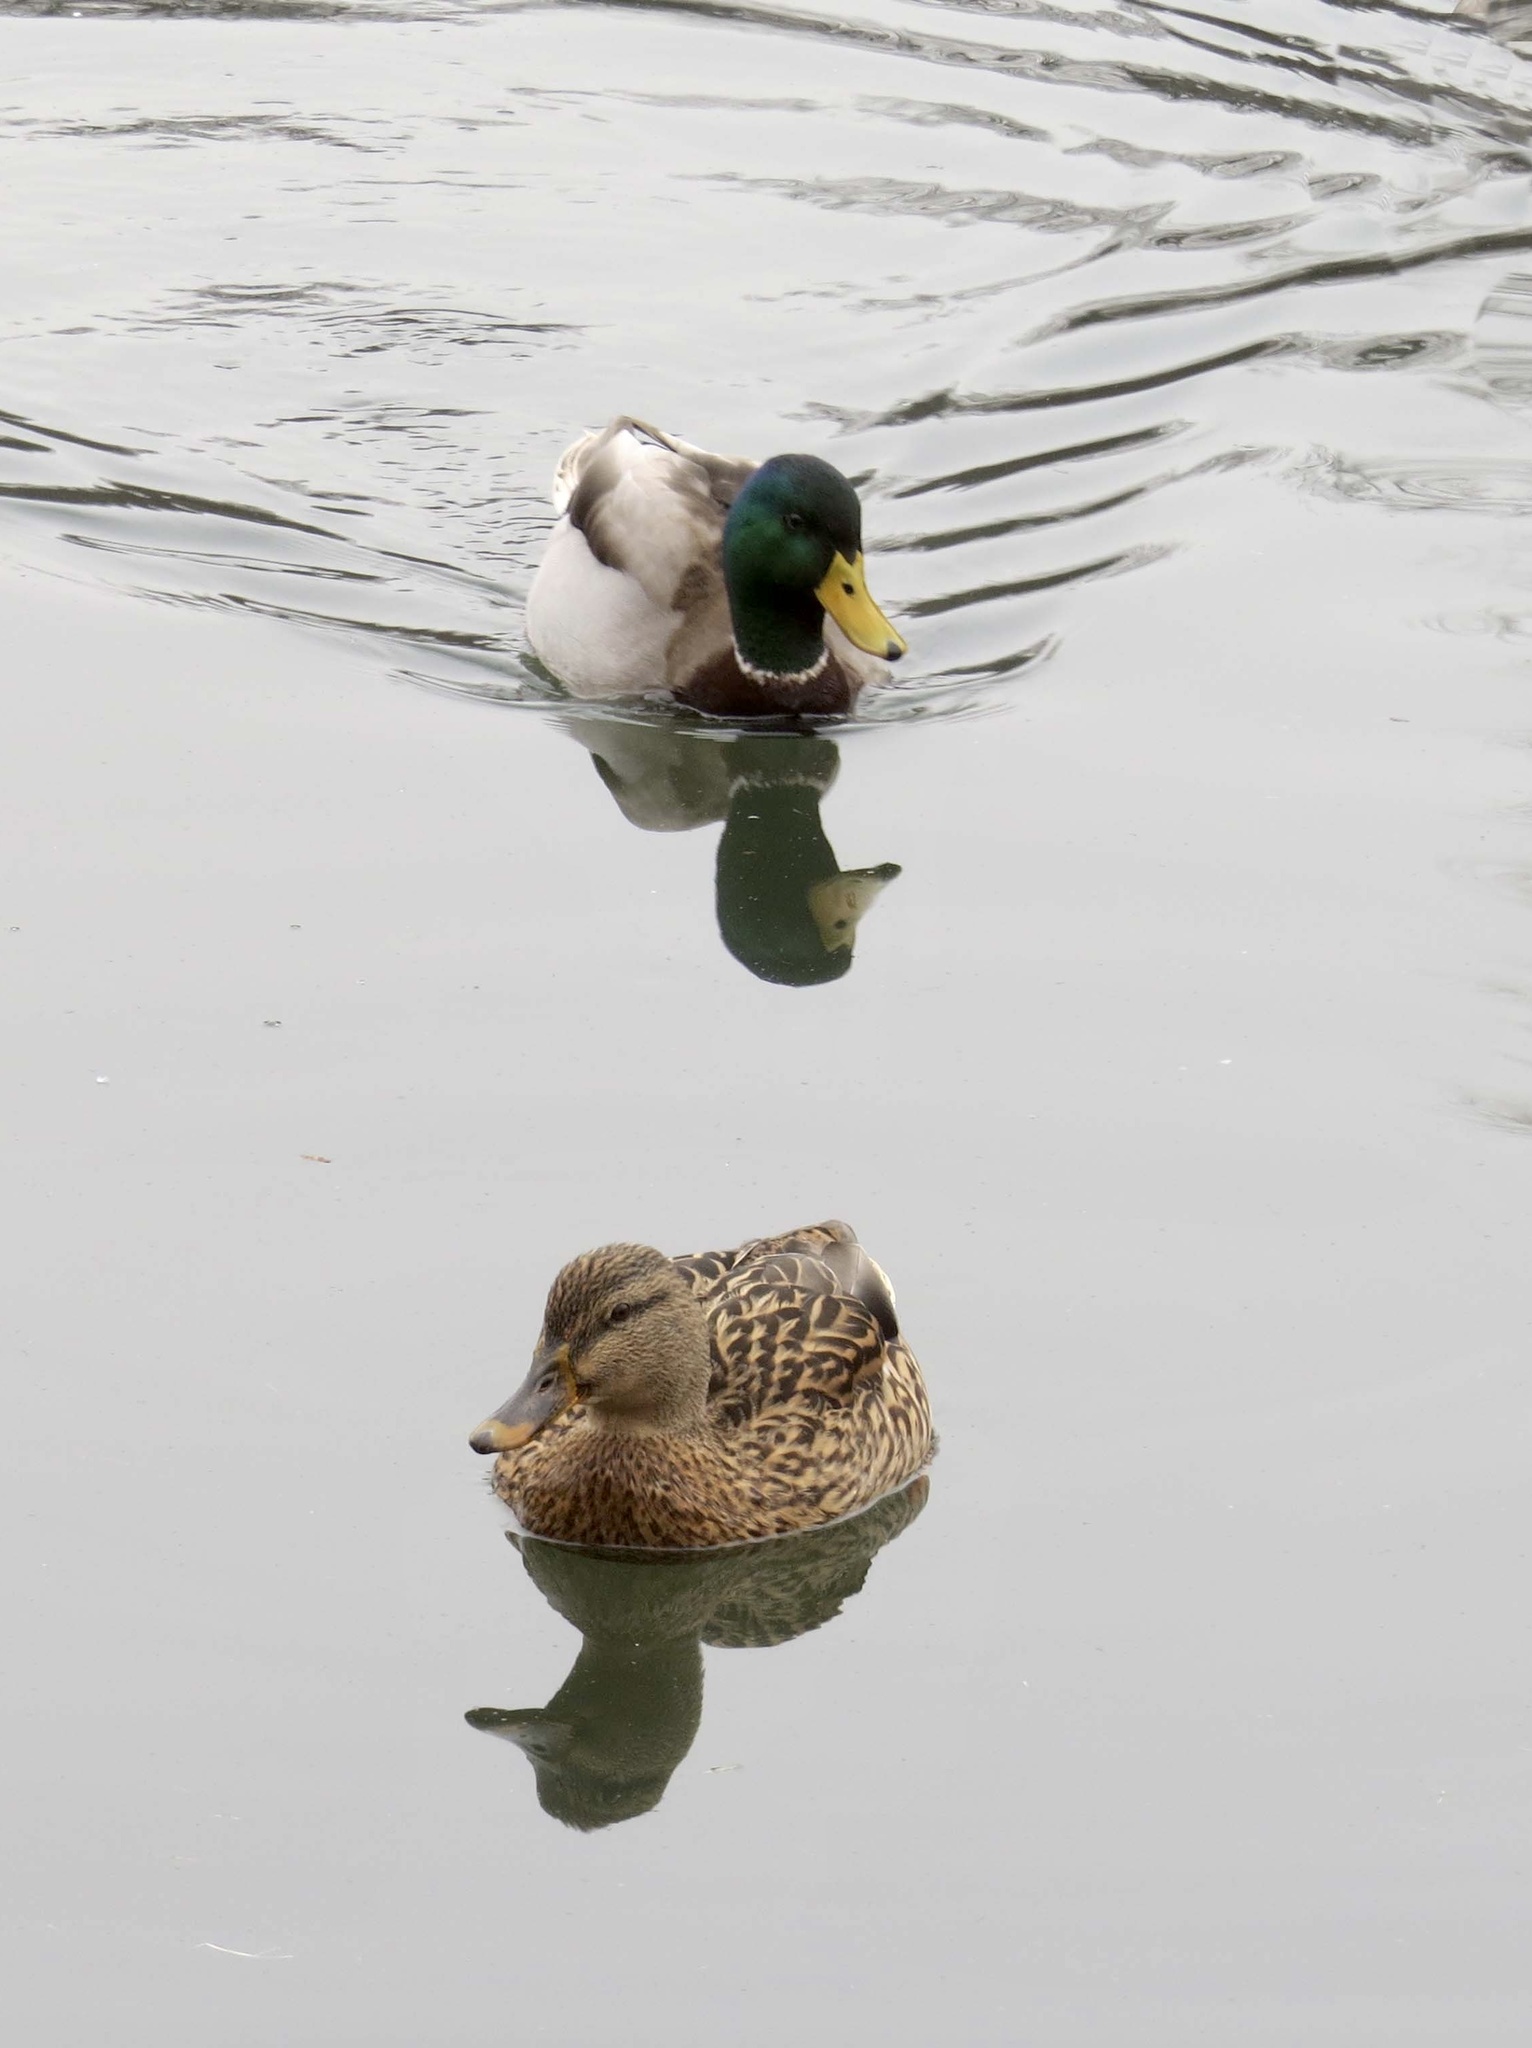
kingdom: Animalia
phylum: Chordata
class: Aves
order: Anseriformes
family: Anatidae
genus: Anas
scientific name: Anas platyrhynchos
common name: Mallard
